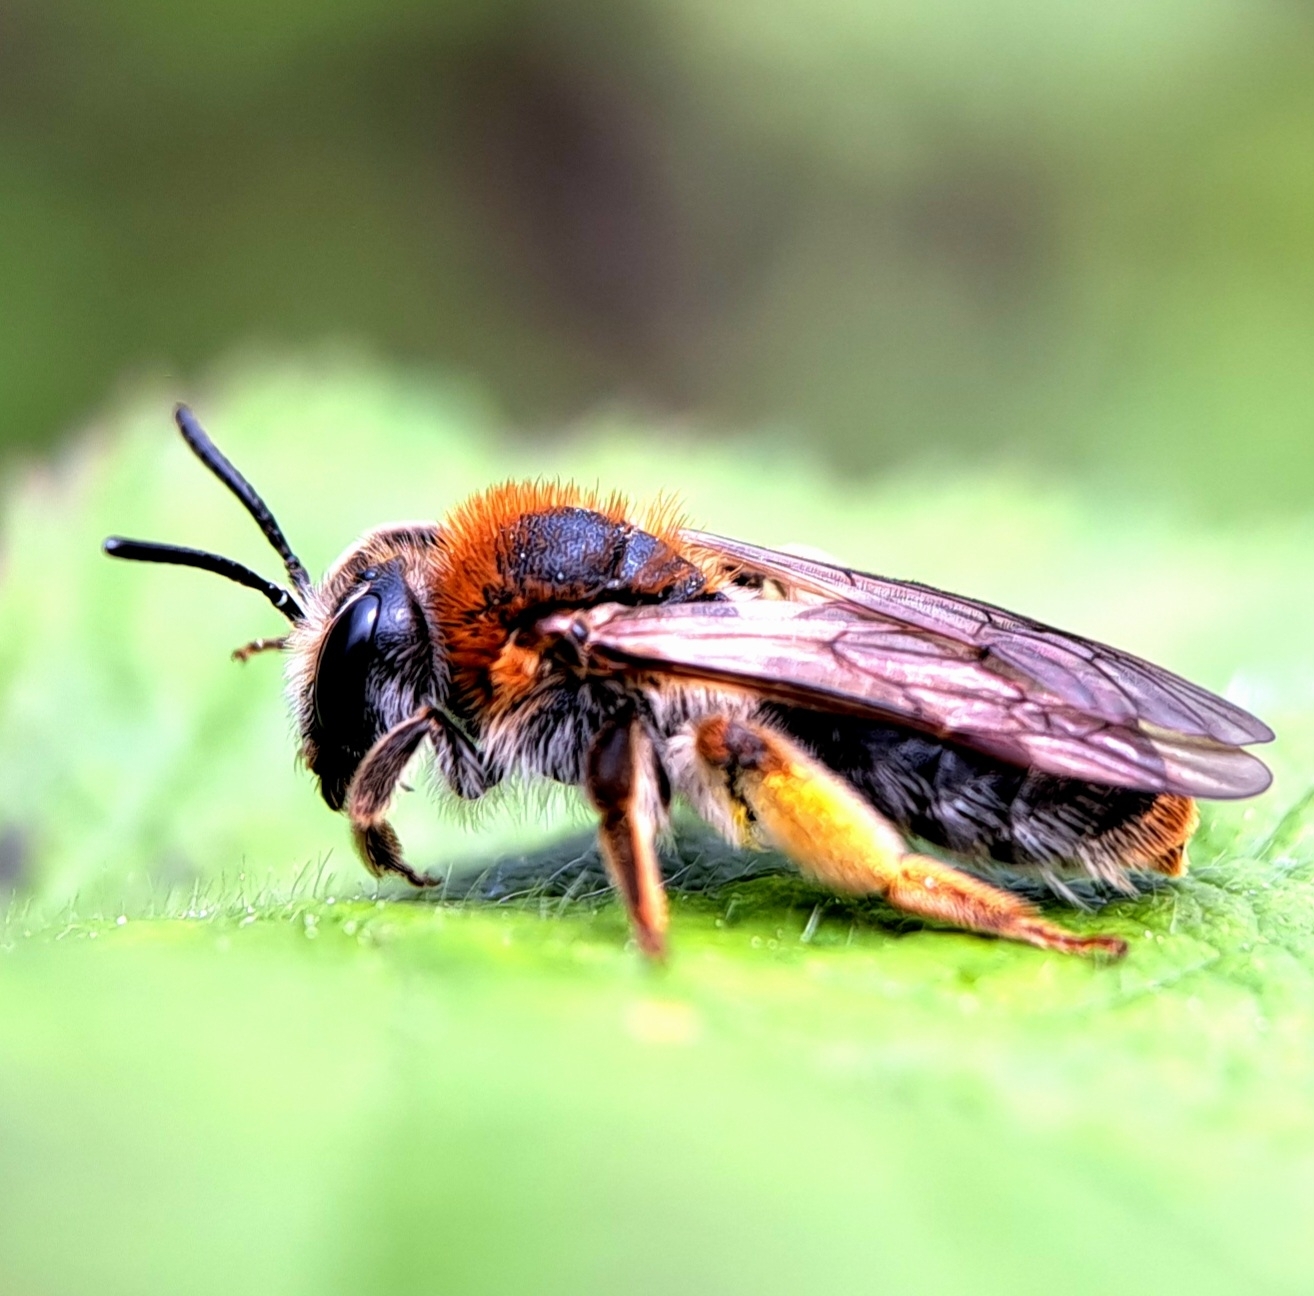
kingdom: Animalia
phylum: Arthropoda
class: Insecta
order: Hymenoptera
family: Andrenidae
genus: Andrena
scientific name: Andrena haemorrhoa
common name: Early mining bee
